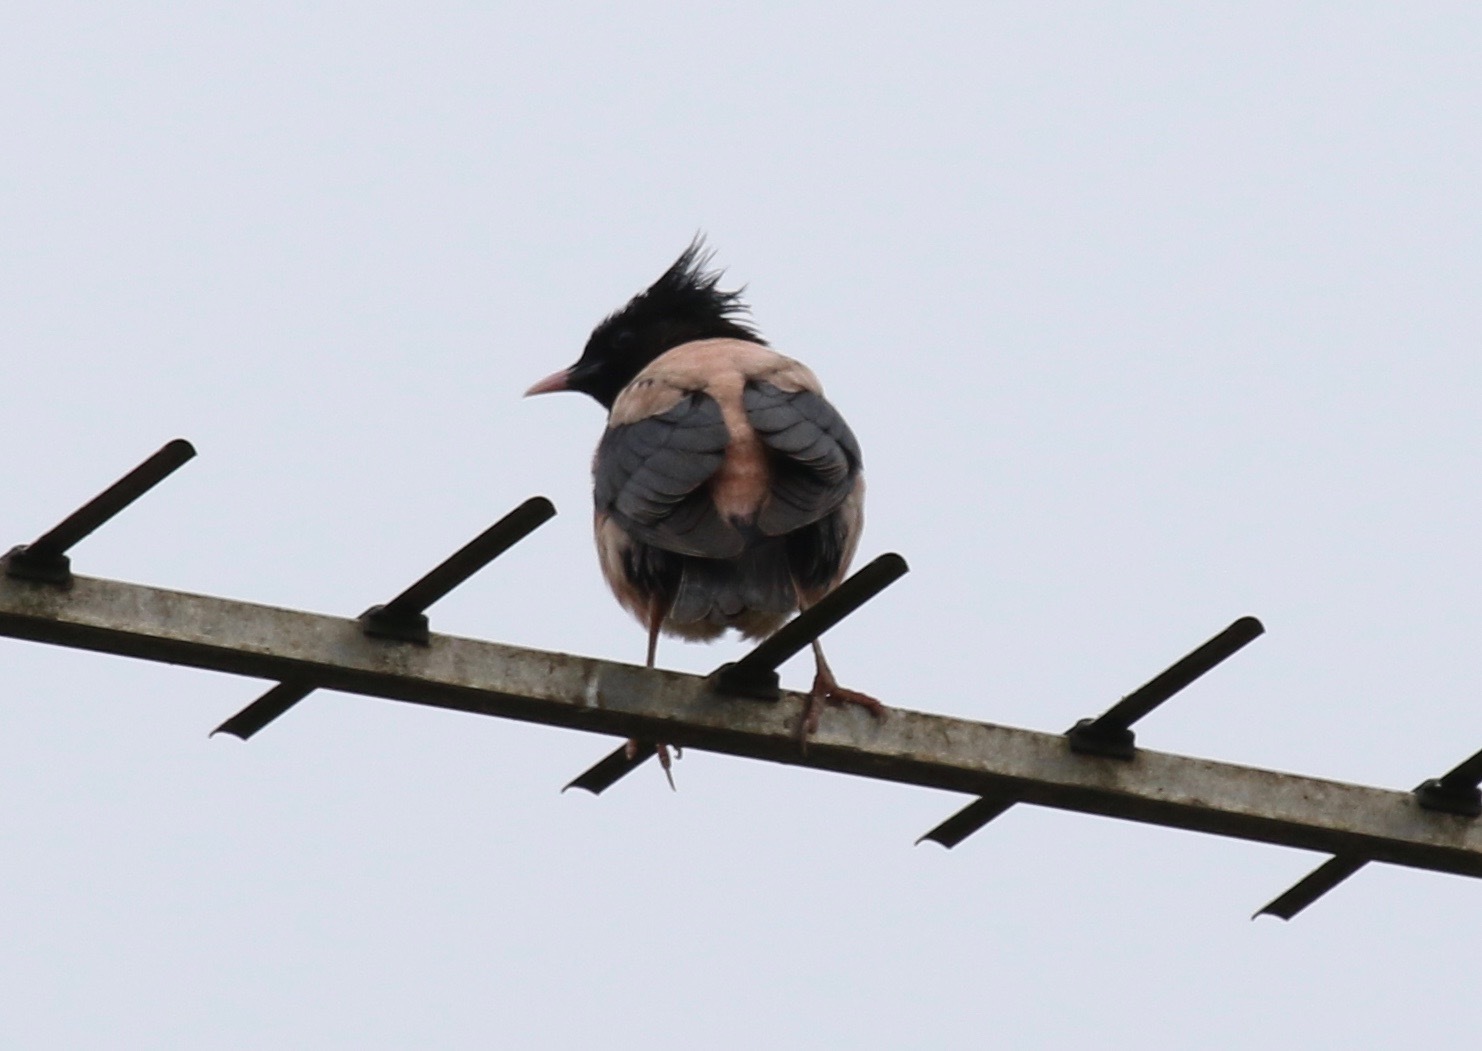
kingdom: Animalia
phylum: Chordata
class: Aves
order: Passeriformes
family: Sturnidae
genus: Pastor
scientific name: Pastor roseus
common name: Rosy starling
